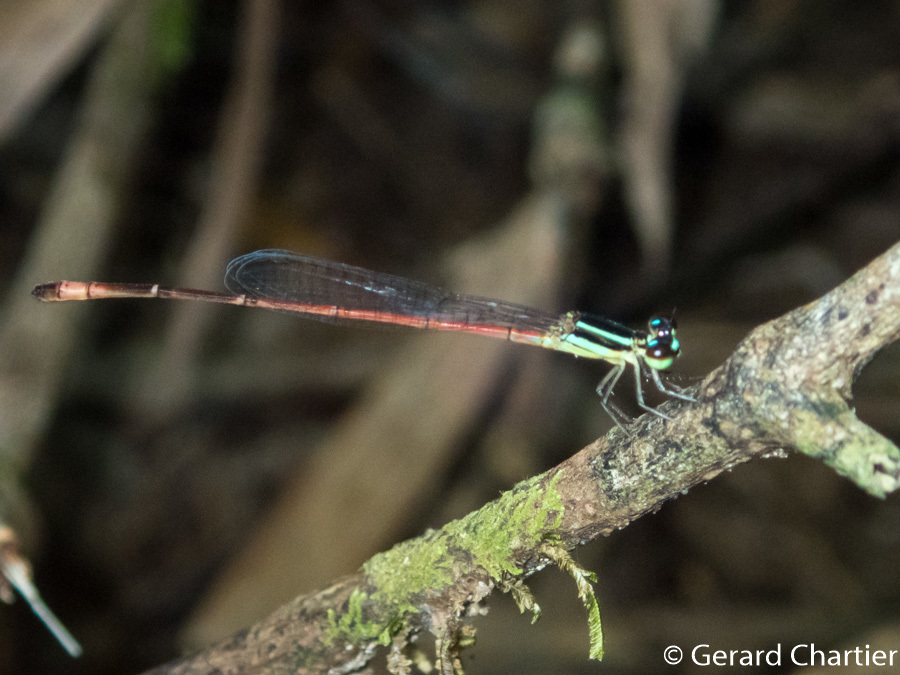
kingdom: Animalia
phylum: Arthropoda
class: Insecta
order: Odonata
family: Coenagrionidae
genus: Argiocnemis
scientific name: Argiocnemis rubescens
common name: Red-tipped shadefly
